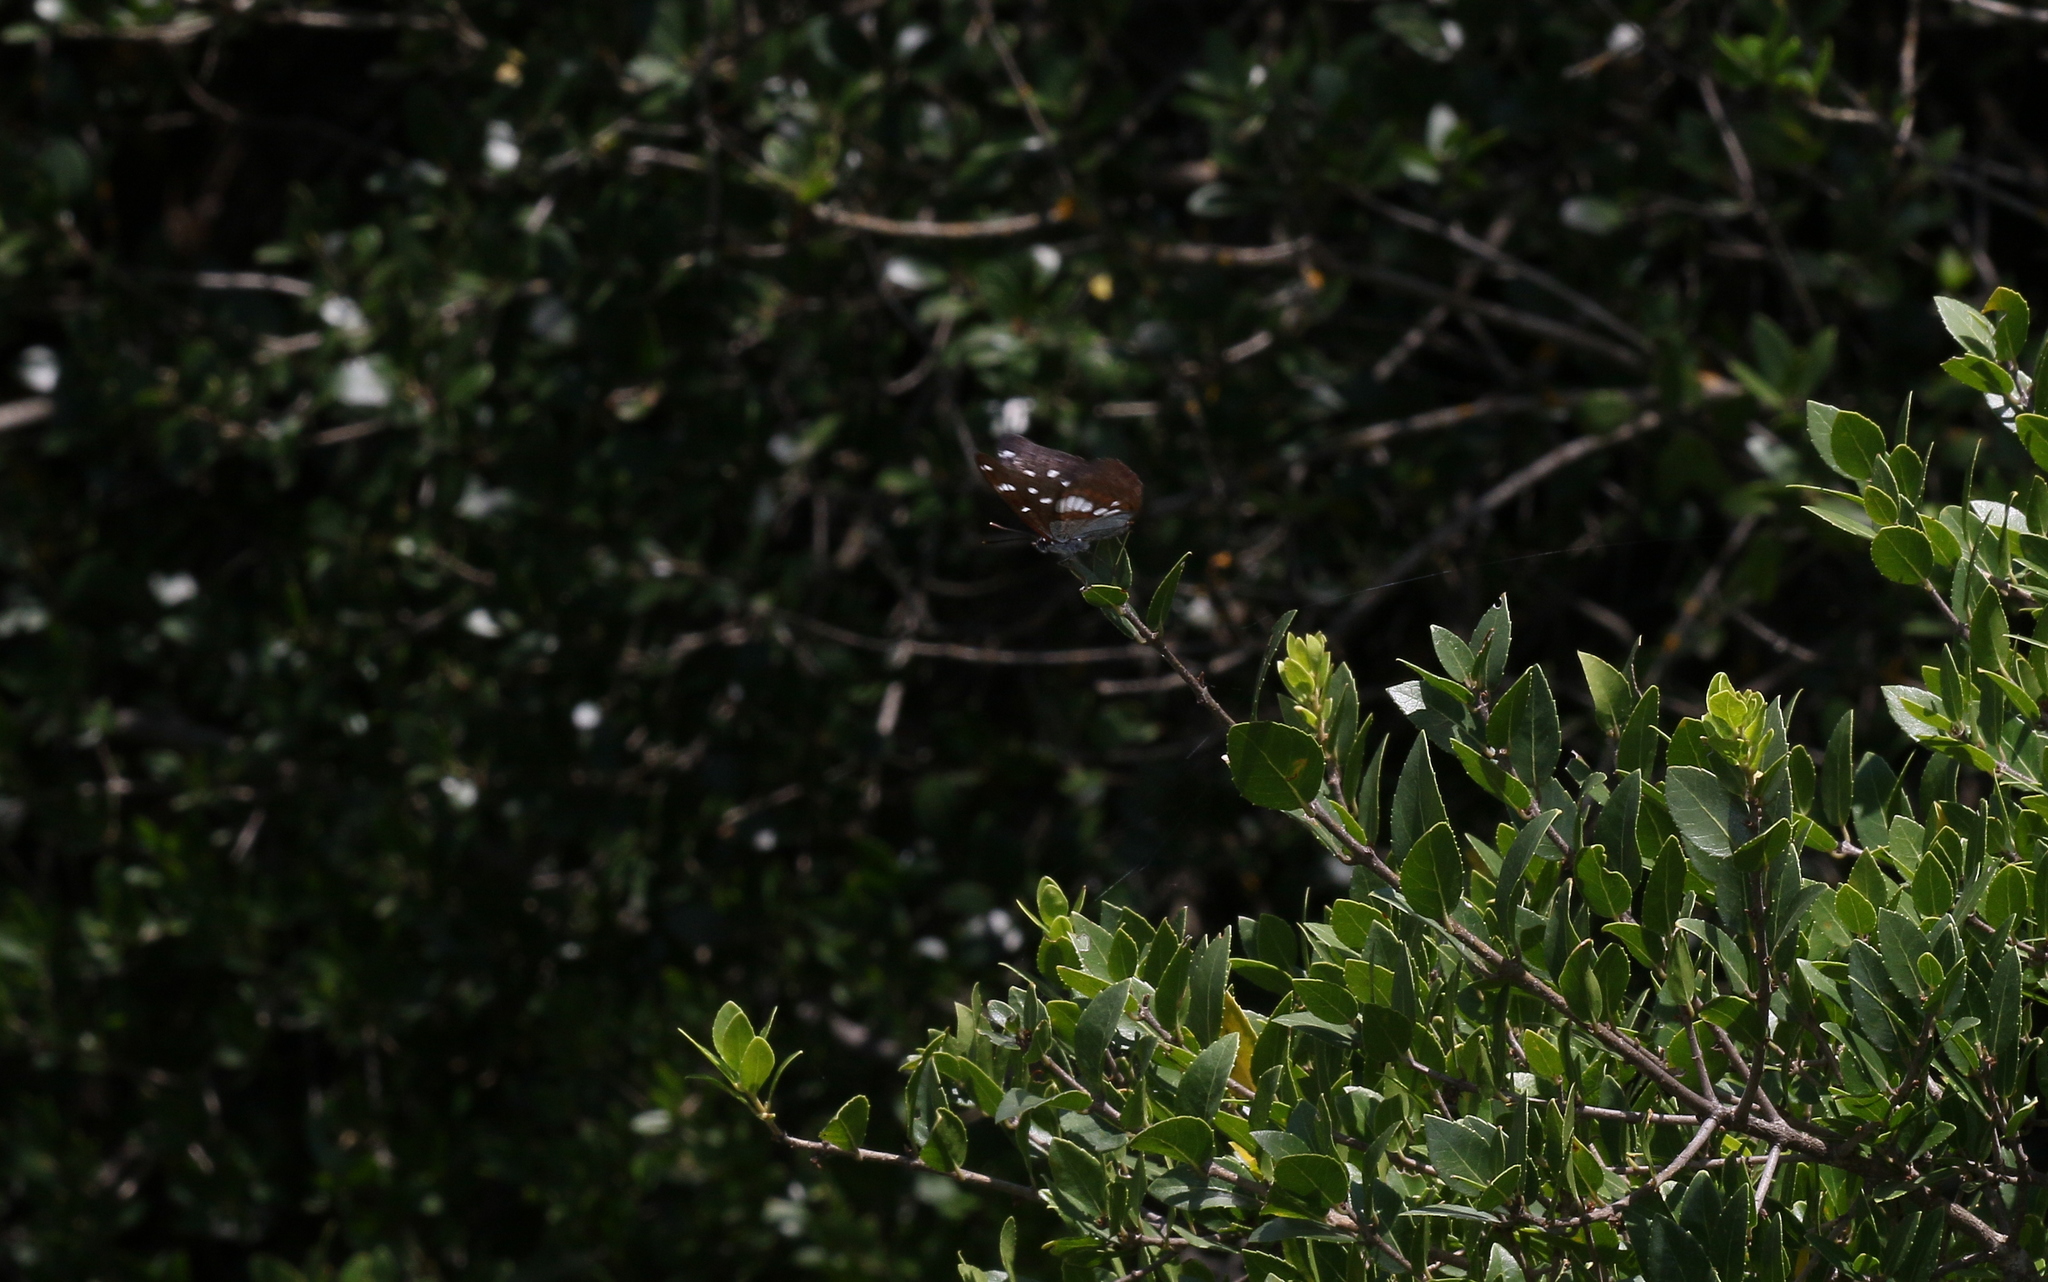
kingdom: Animalia
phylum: Arthropoda
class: Insecta
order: Lepidoptera
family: Nymphalidae
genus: Limenitis
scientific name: Limenitis reducta
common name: Southern white admiral
